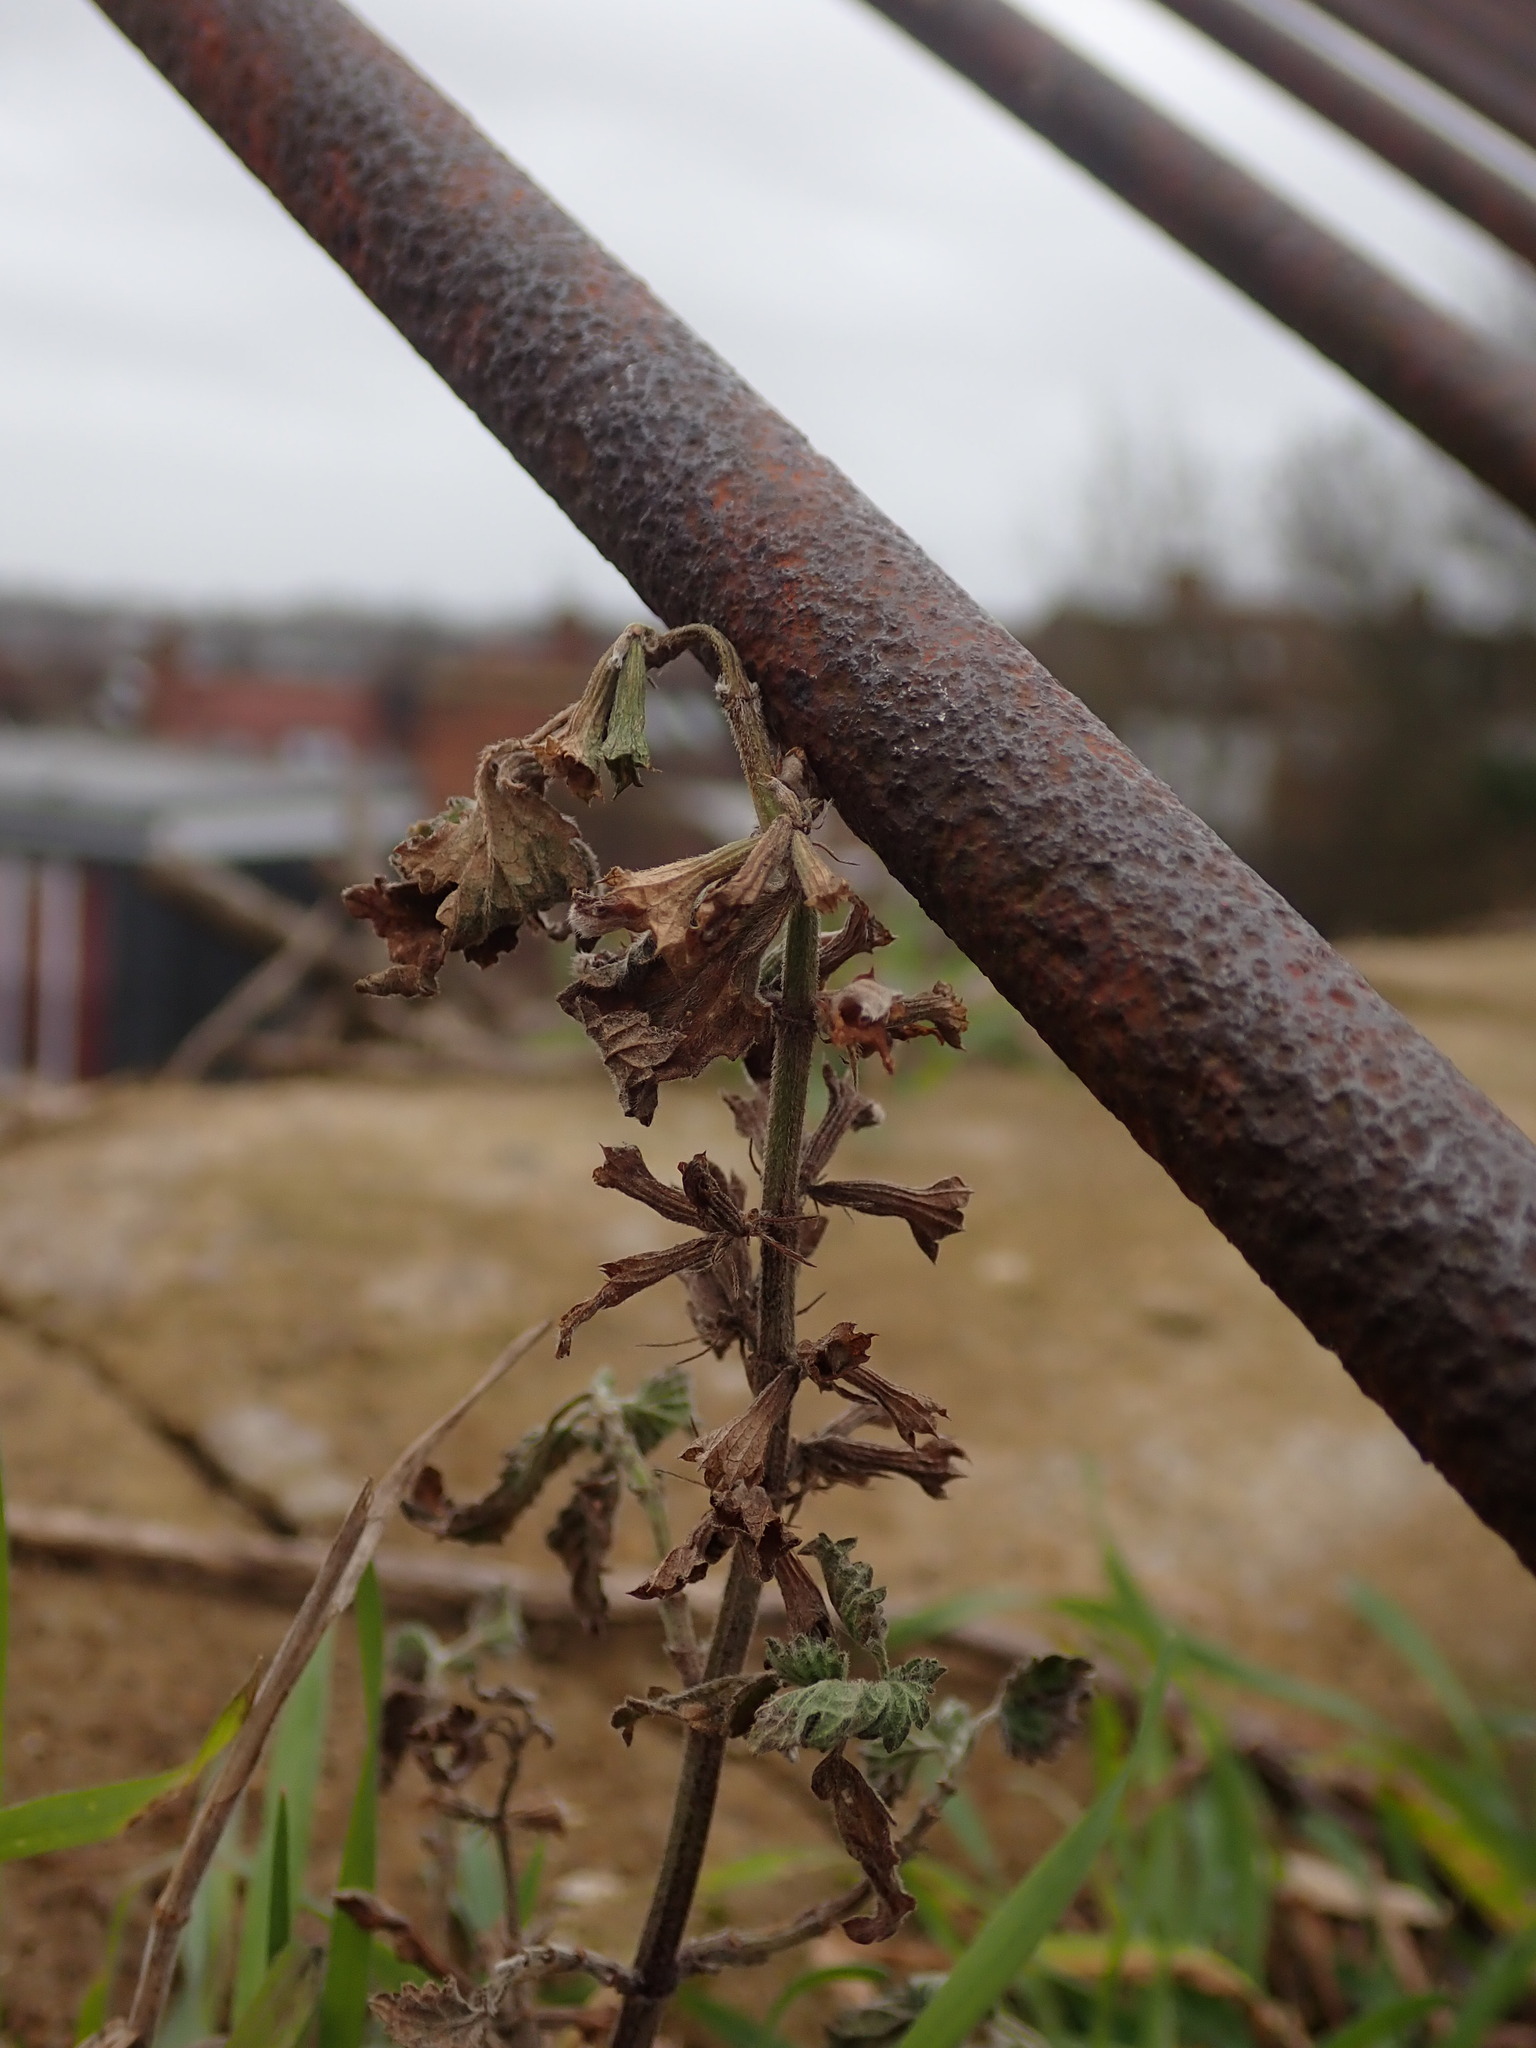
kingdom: Plantae
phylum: Tracheophyta
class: Magnoliopsida
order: Lamiales
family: Lamiaceae
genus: Ballota
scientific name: Ballota nigra
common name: Black horehound
